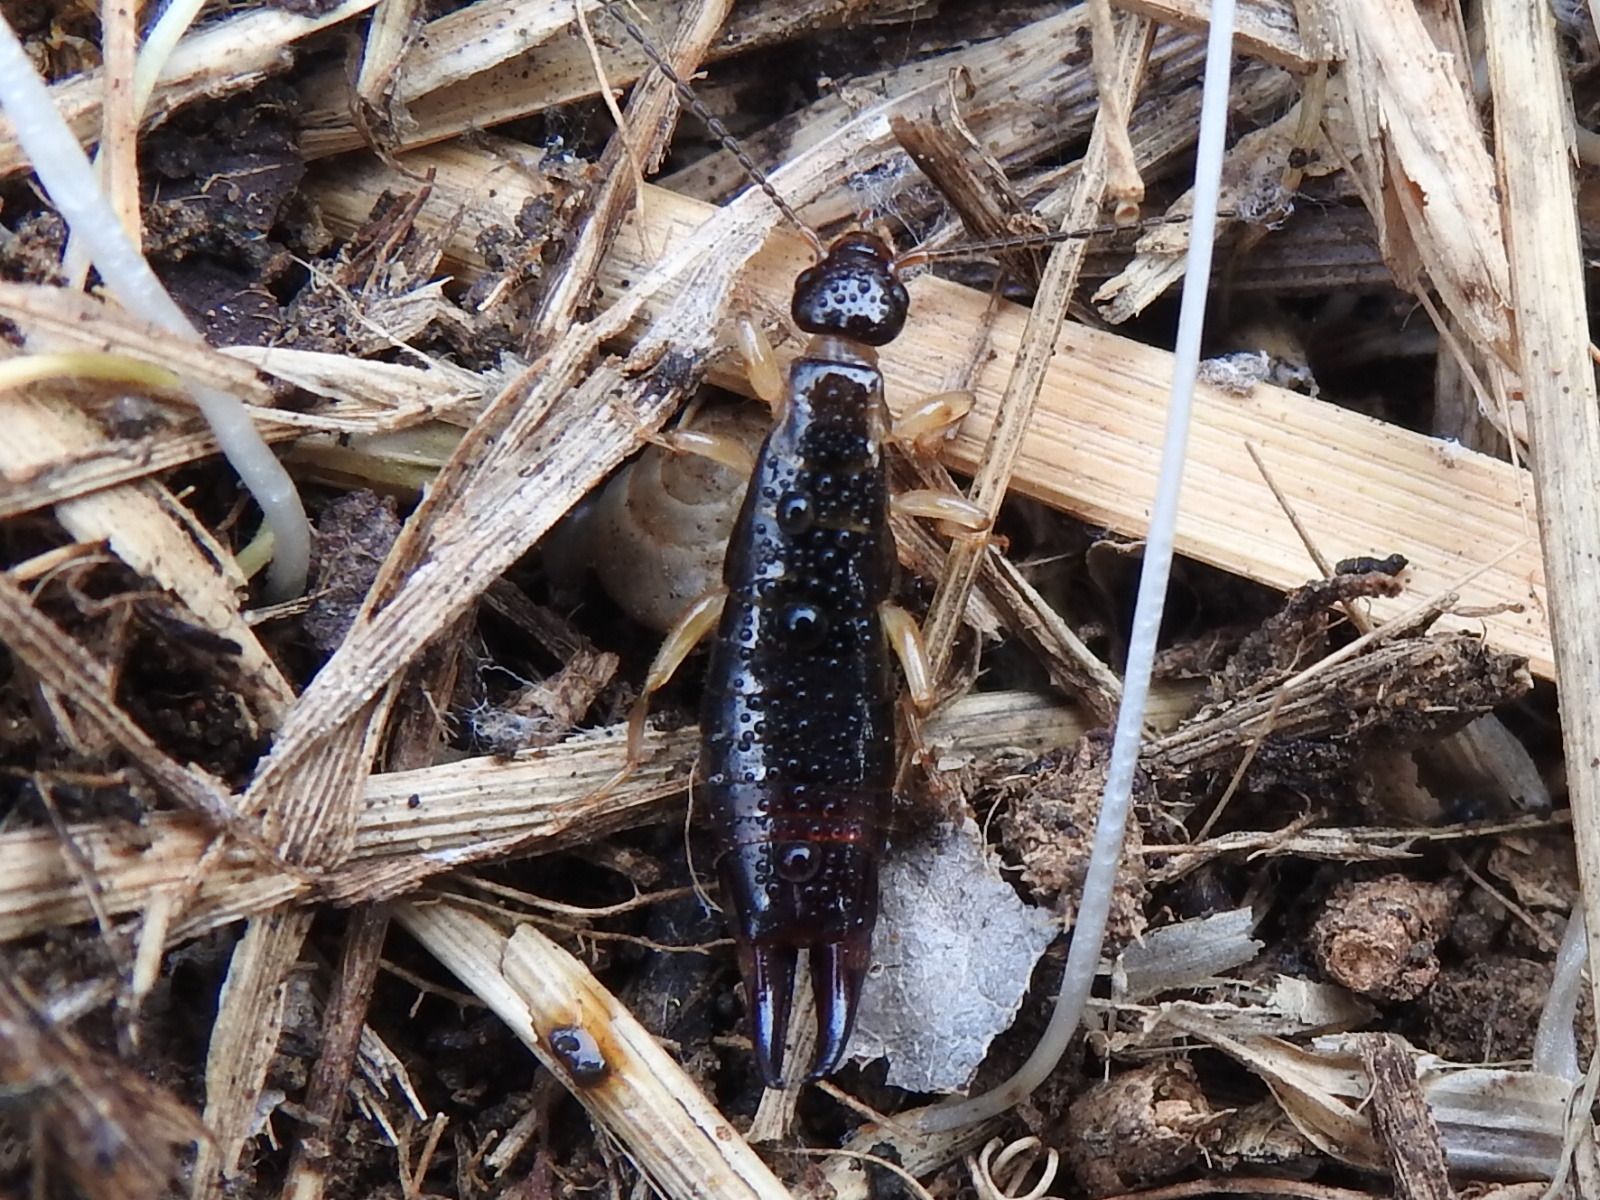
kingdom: Animalia
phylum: Arthropoda
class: Insecta
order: Dermaptera
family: Anisolabididae
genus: Euborellia
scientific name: Euborellia annulipes
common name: Ringlegged earwig
